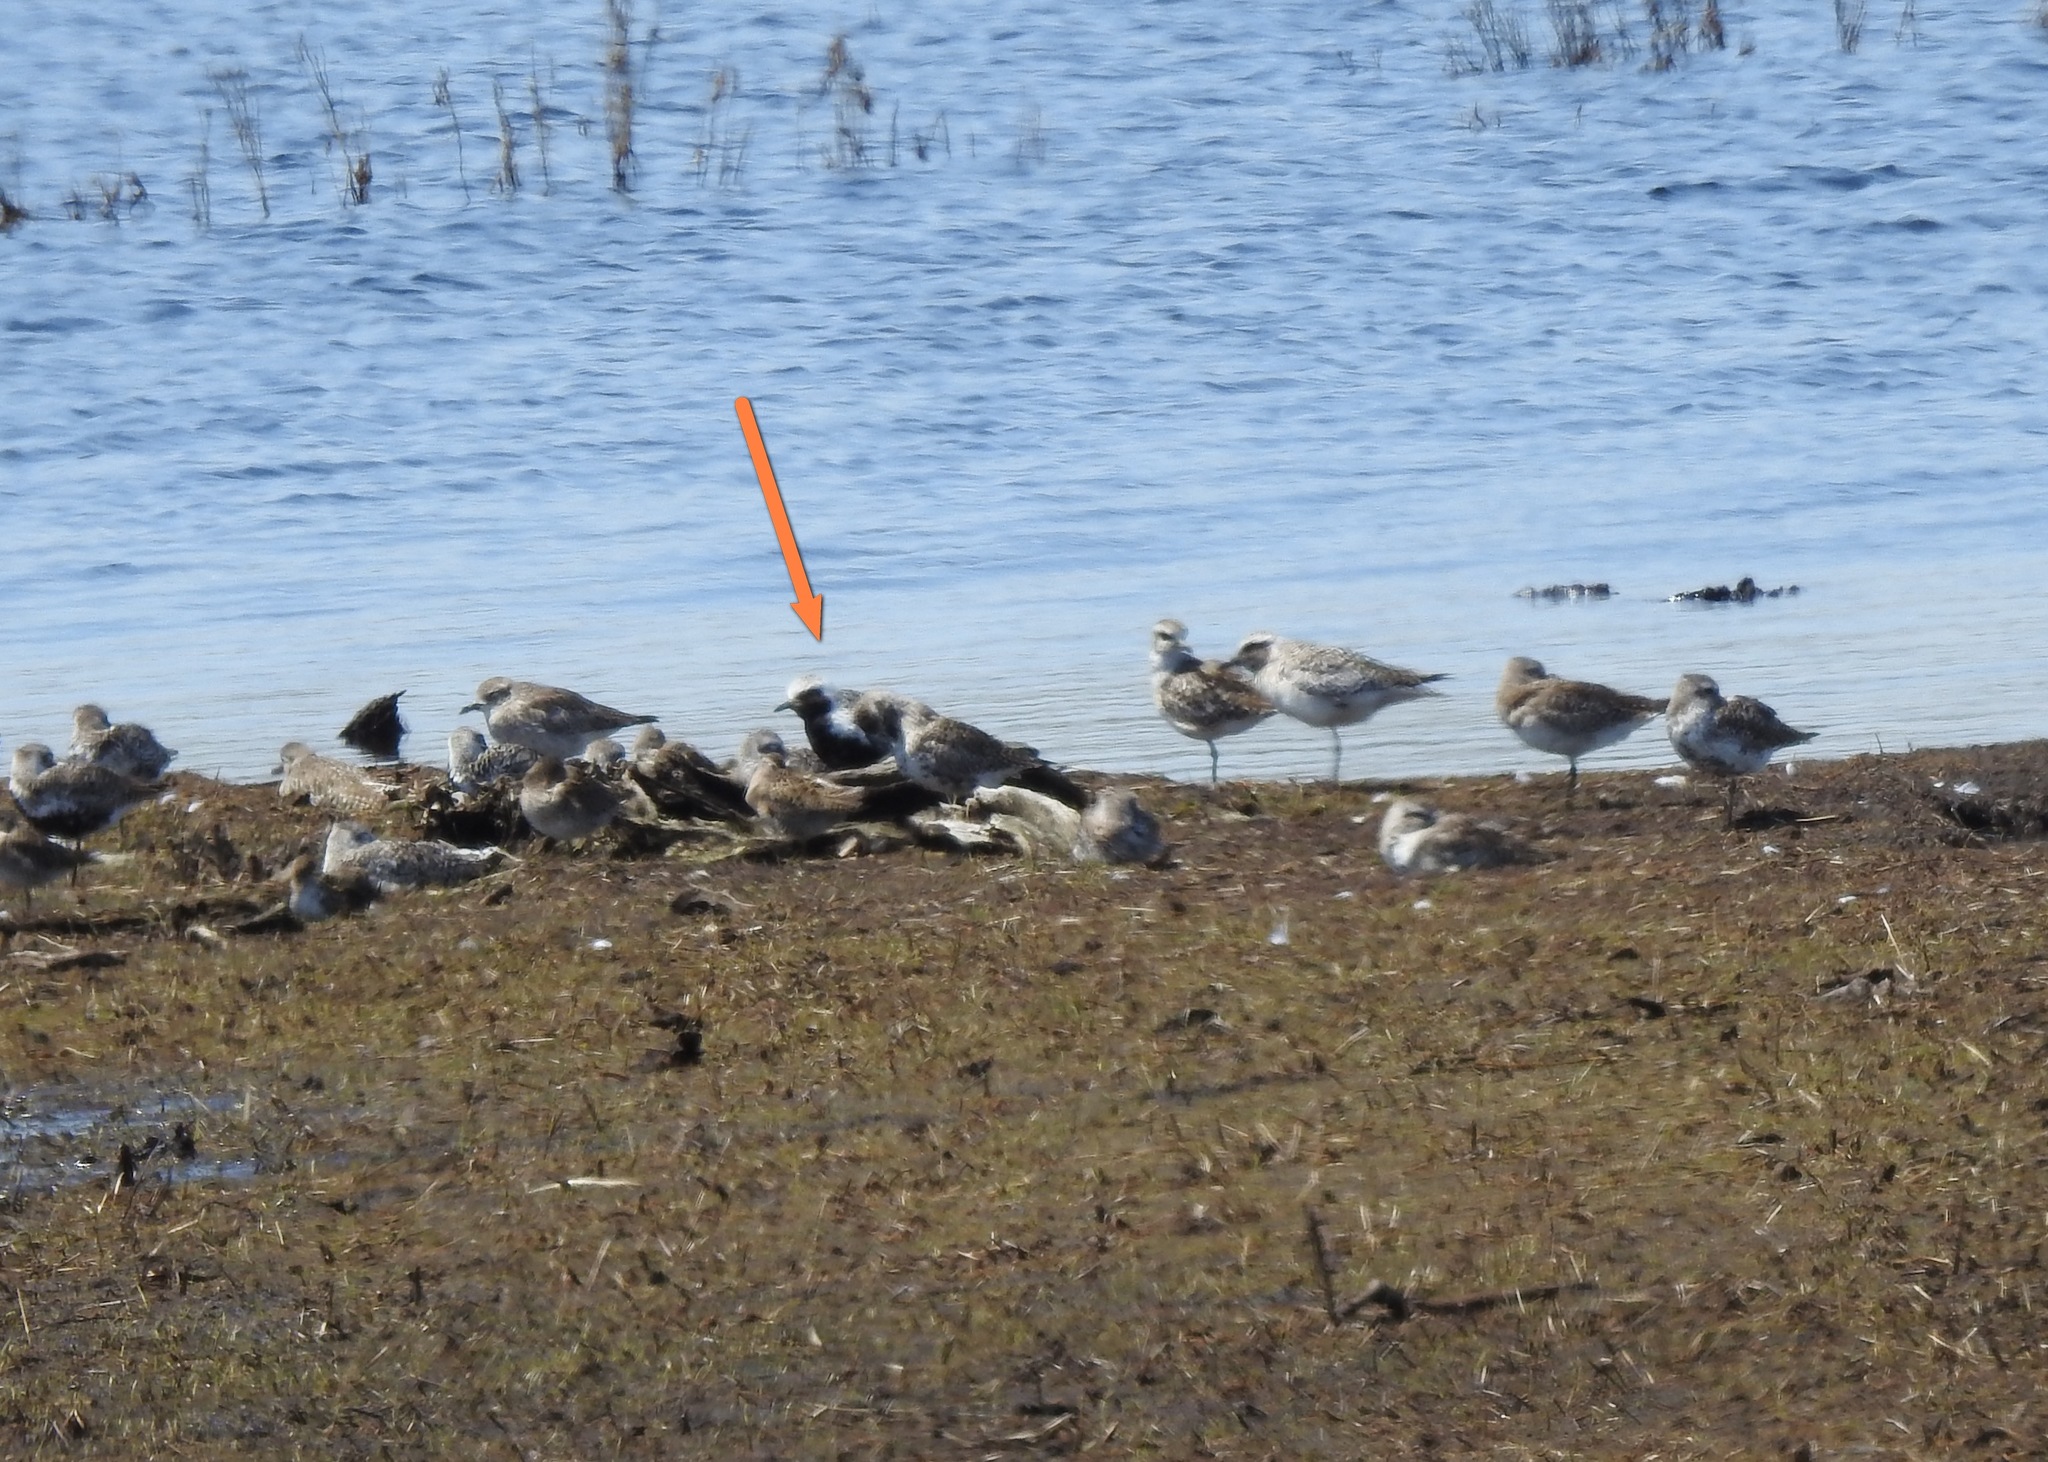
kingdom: Animalia
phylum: Chordata
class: Aves
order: Charadriiformes
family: Charadriidae
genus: Pluvialis
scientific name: Pluvialis squatarola
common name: Grey plover
